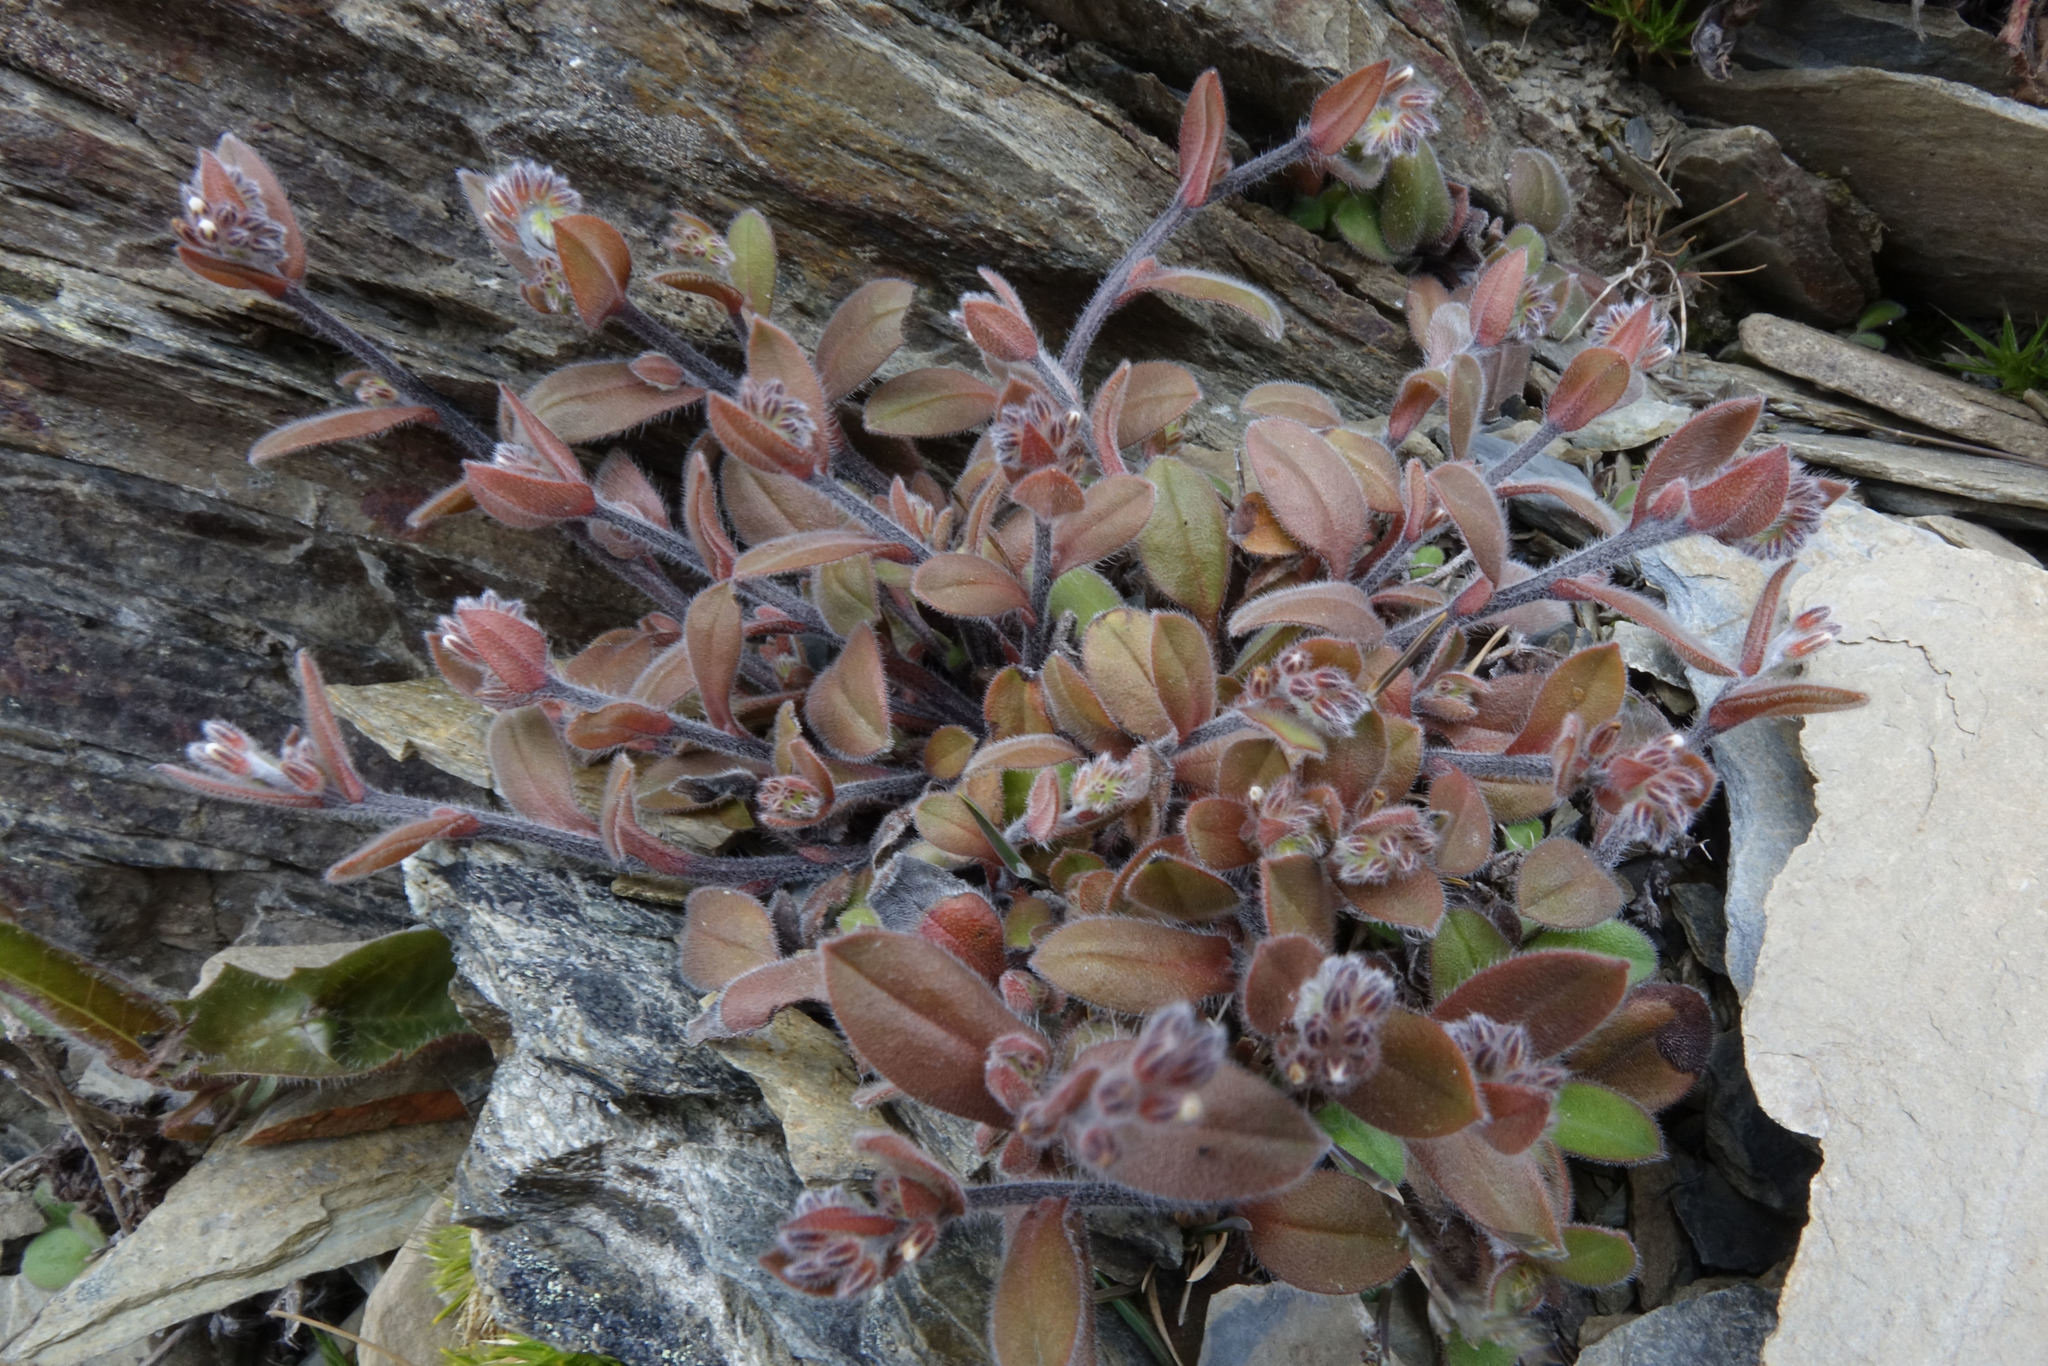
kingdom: Plantae
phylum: Tracheophyta
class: Magnoliopsida
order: Boraginales
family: Boraginaceae
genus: Myosotis
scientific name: Myosotis australis
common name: Australian forget-me-not
